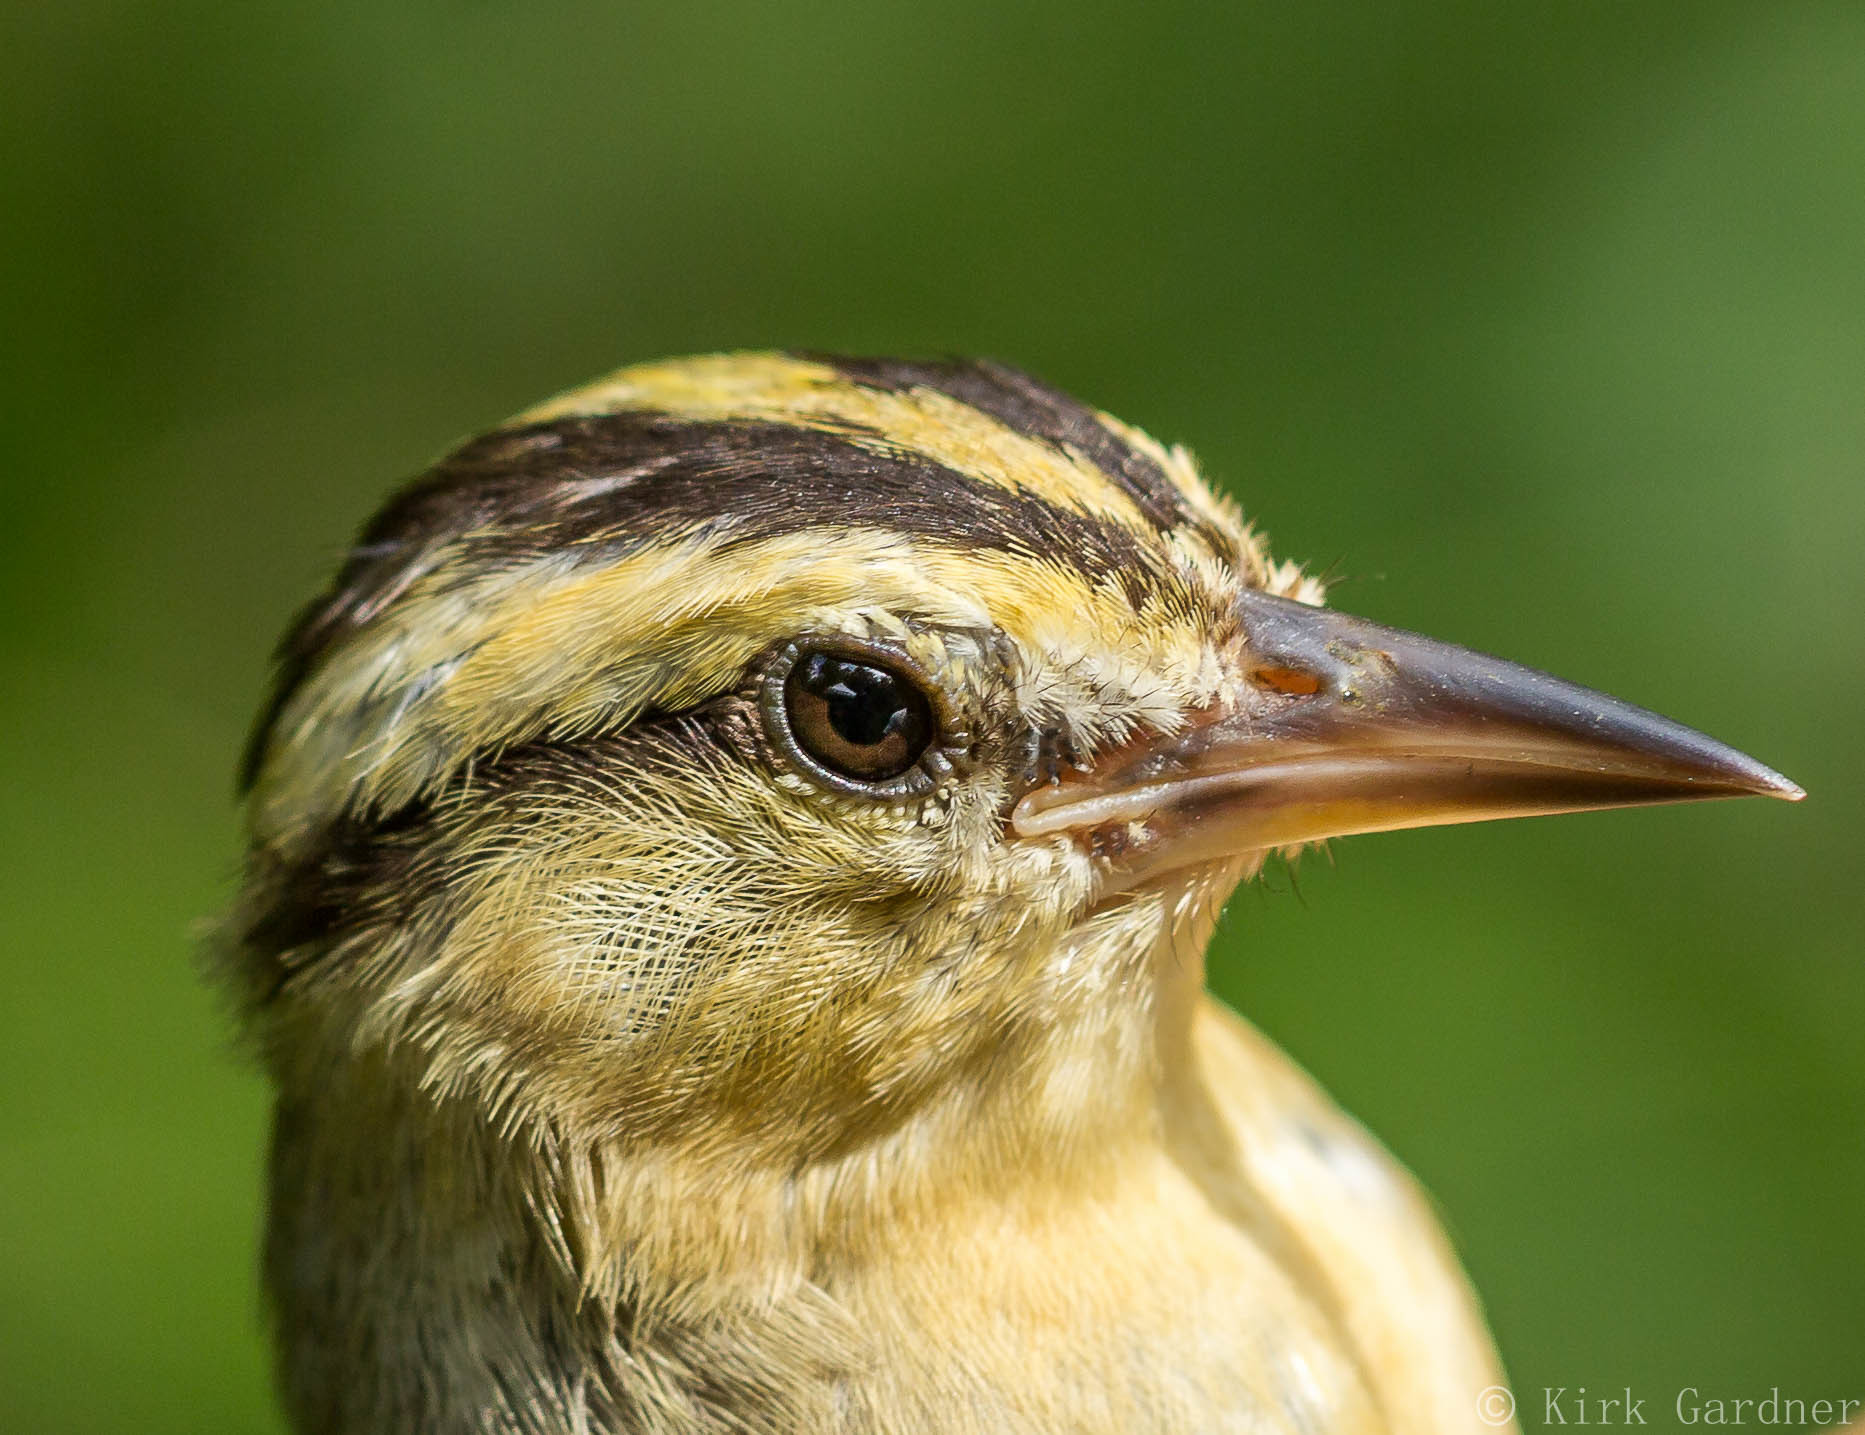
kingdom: Animalia
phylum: Chordata
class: Aves
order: Passeriformes
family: Parulidae
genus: Helmitheros
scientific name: Helmitheros vermivorum
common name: Worm-eating warbler
